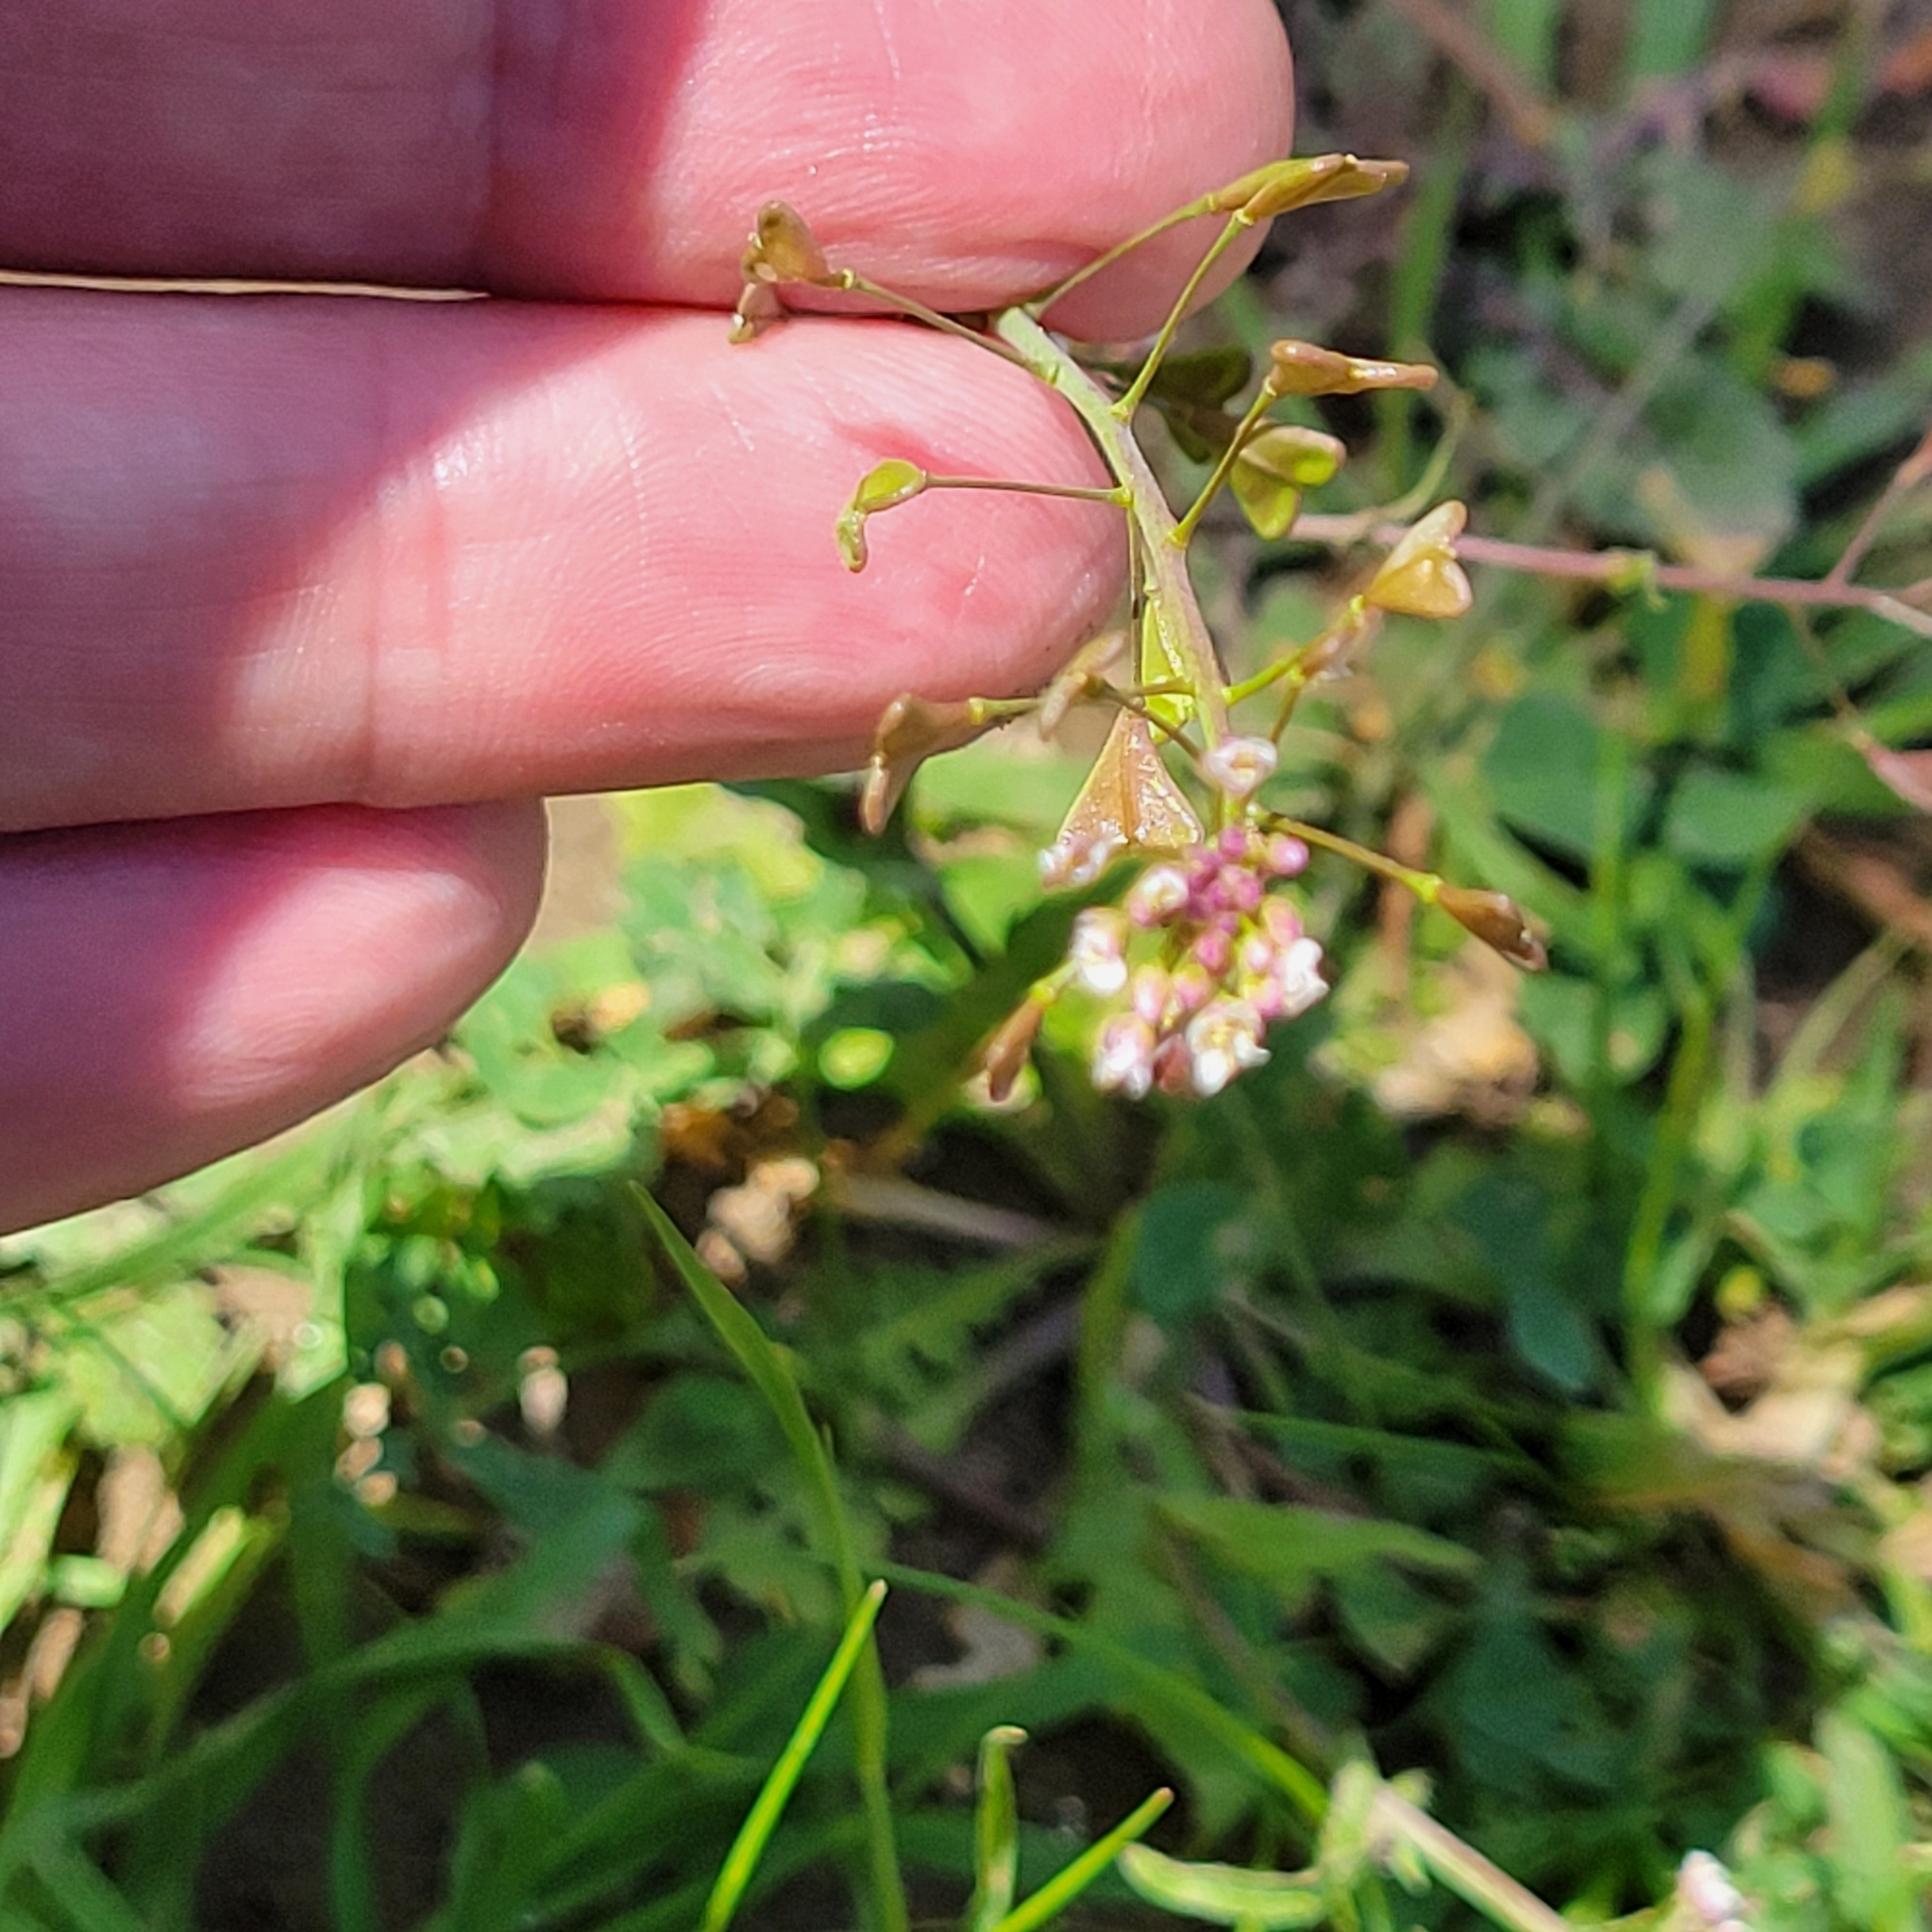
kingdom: Plantae
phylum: Tracheophyta
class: Magnoliopsida
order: Brassicales
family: Brassicaceae
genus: Capsella
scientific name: Capsella bursa-pastoris
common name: Shepherd's purse
